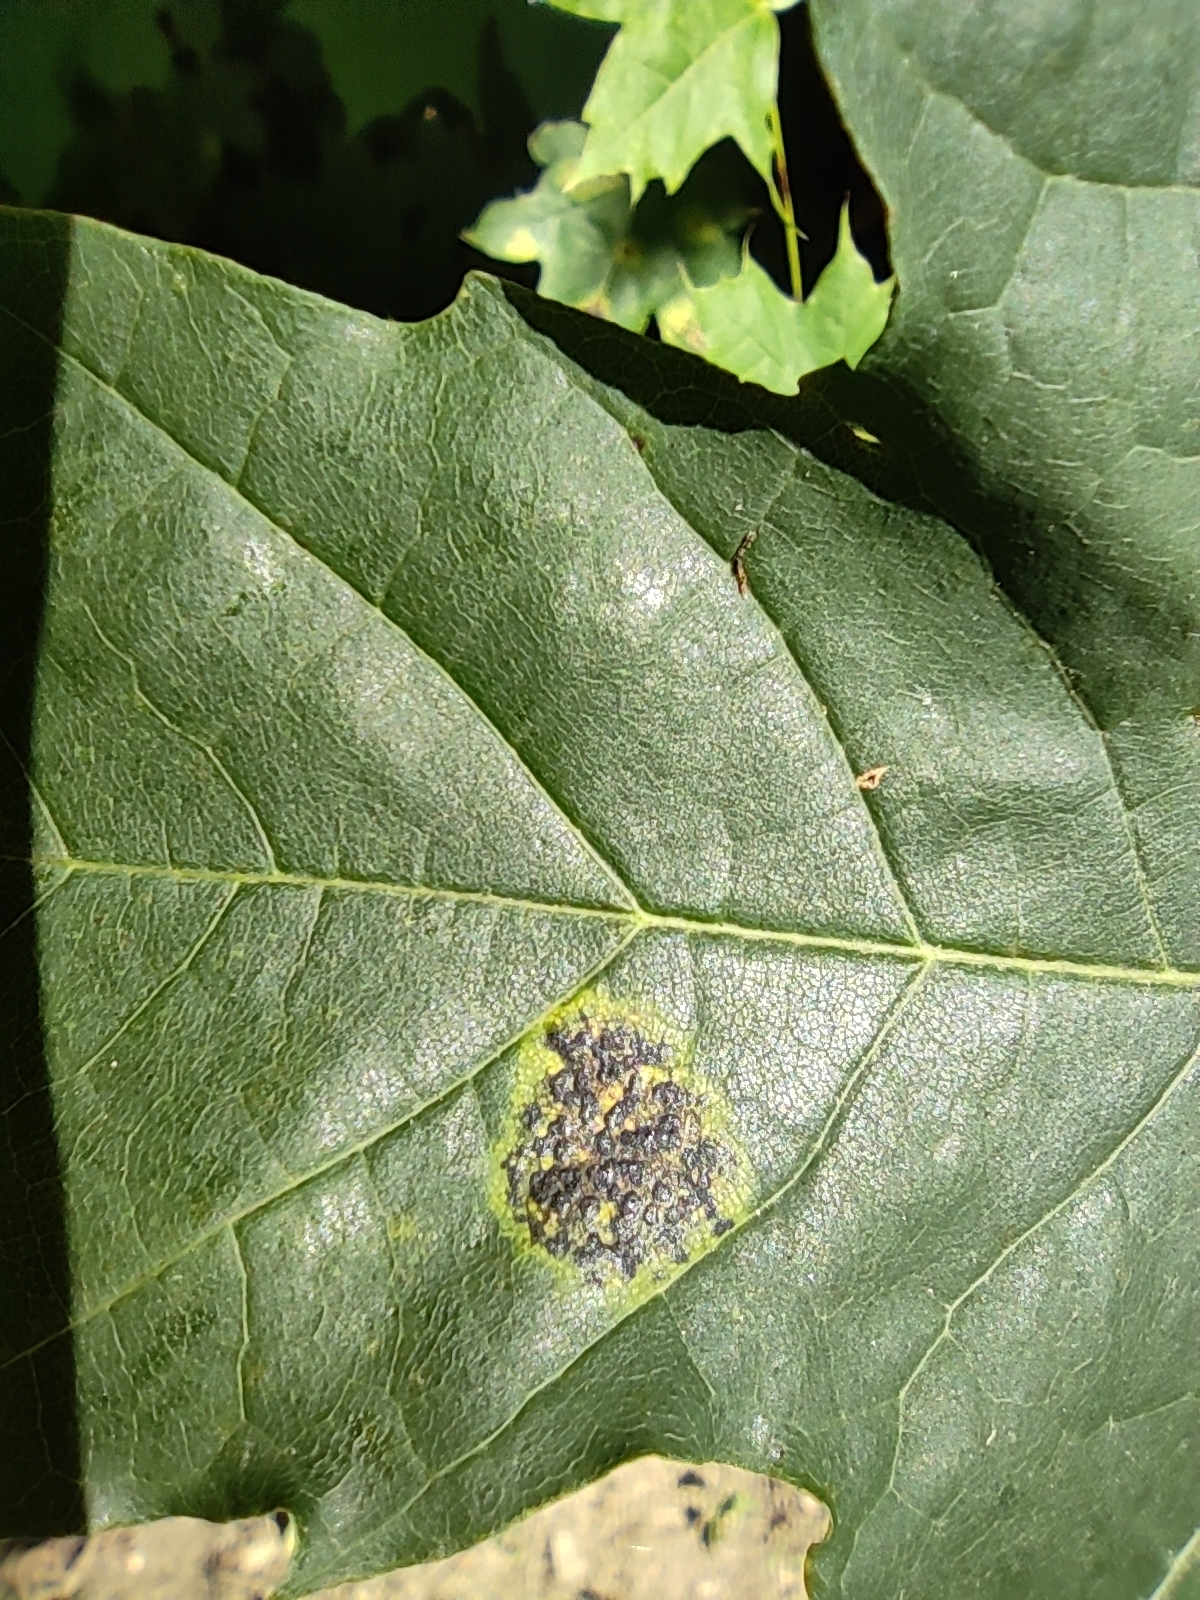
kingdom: Fungi
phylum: Ascomycota
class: Leotiomycetes
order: Rhytismatales
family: Rhytismataceae
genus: Rhytisma
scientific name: Rhytisma acerinum
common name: European tar spot
